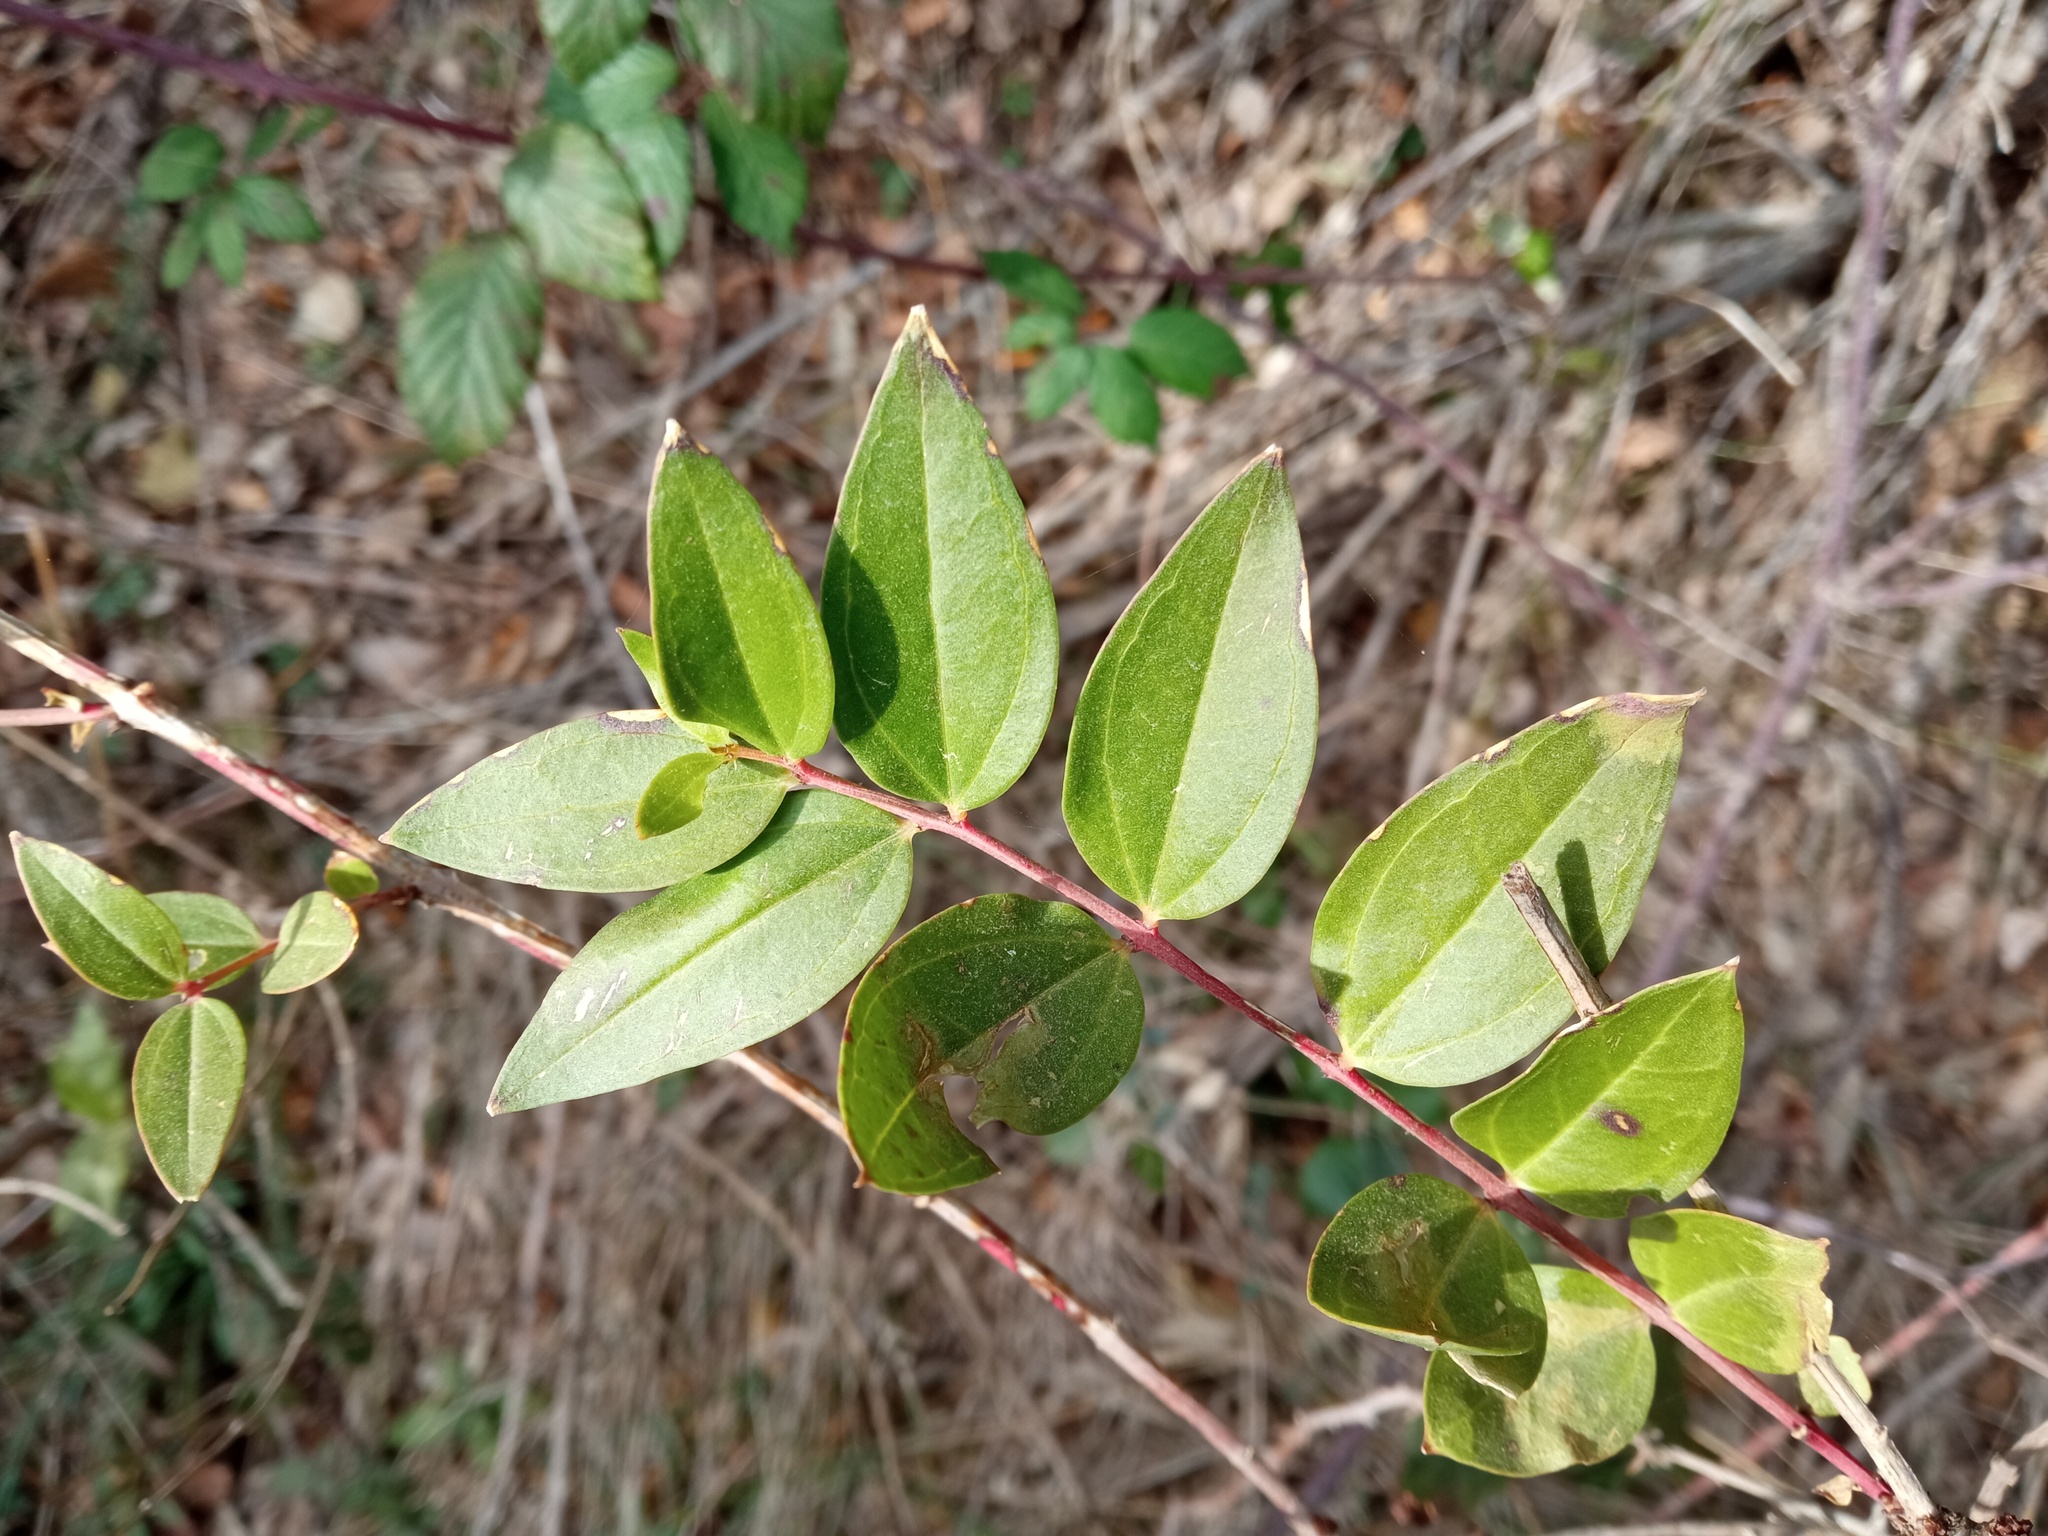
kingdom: Plantae
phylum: Tracheophyta
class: Magnoliopsida
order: Cucurbitales
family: Coriariaceae
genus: Coriaria
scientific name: Coriaria myrtifolia
